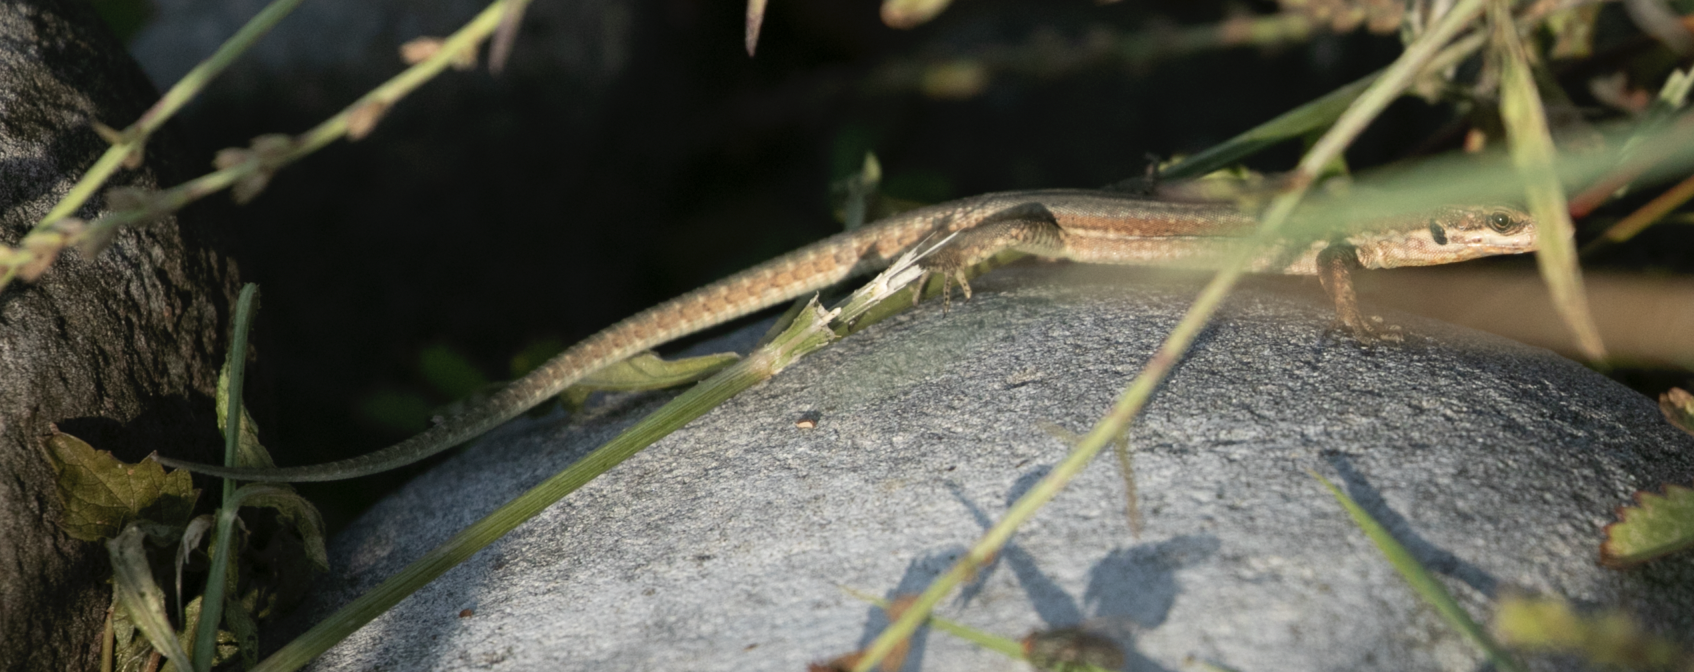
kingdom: Animalia
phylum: Chordata
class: Squamata
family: Lacertidae
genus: Podarcis
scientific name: Podarcis muralis
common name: Common wall lizard
